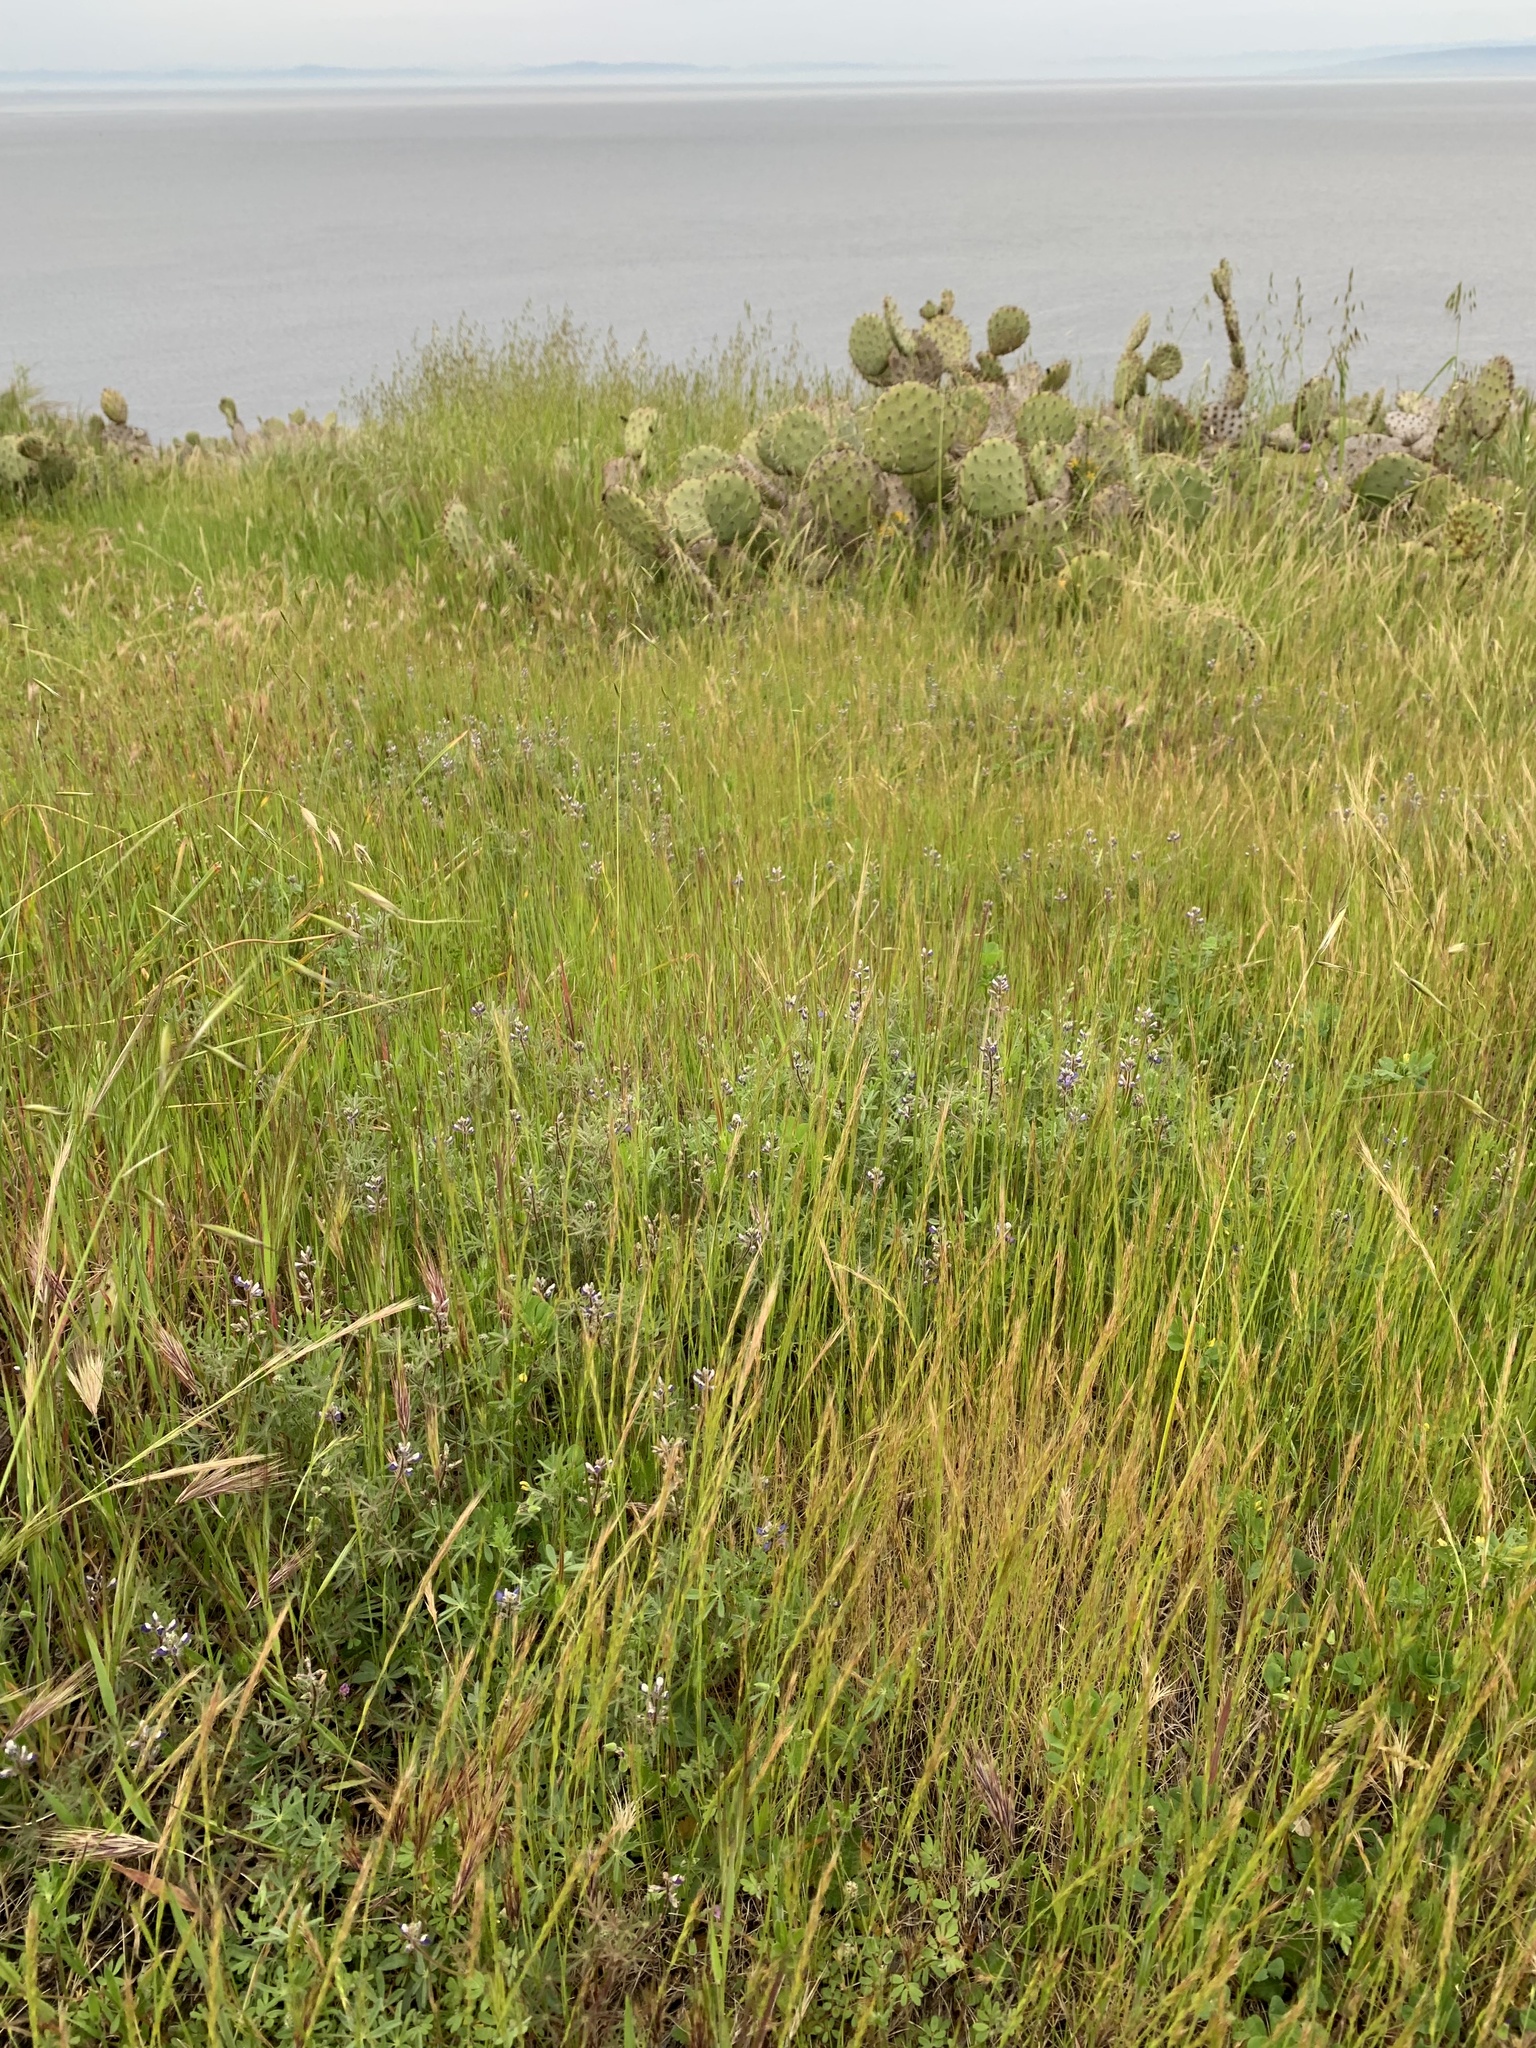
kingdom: Plantae
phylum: Tracheophyta
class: Magnoliopsida
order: Fabales
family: Fabaceae
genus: Lupinus
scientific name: Lupinus bicolor
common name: Miniature lupine
